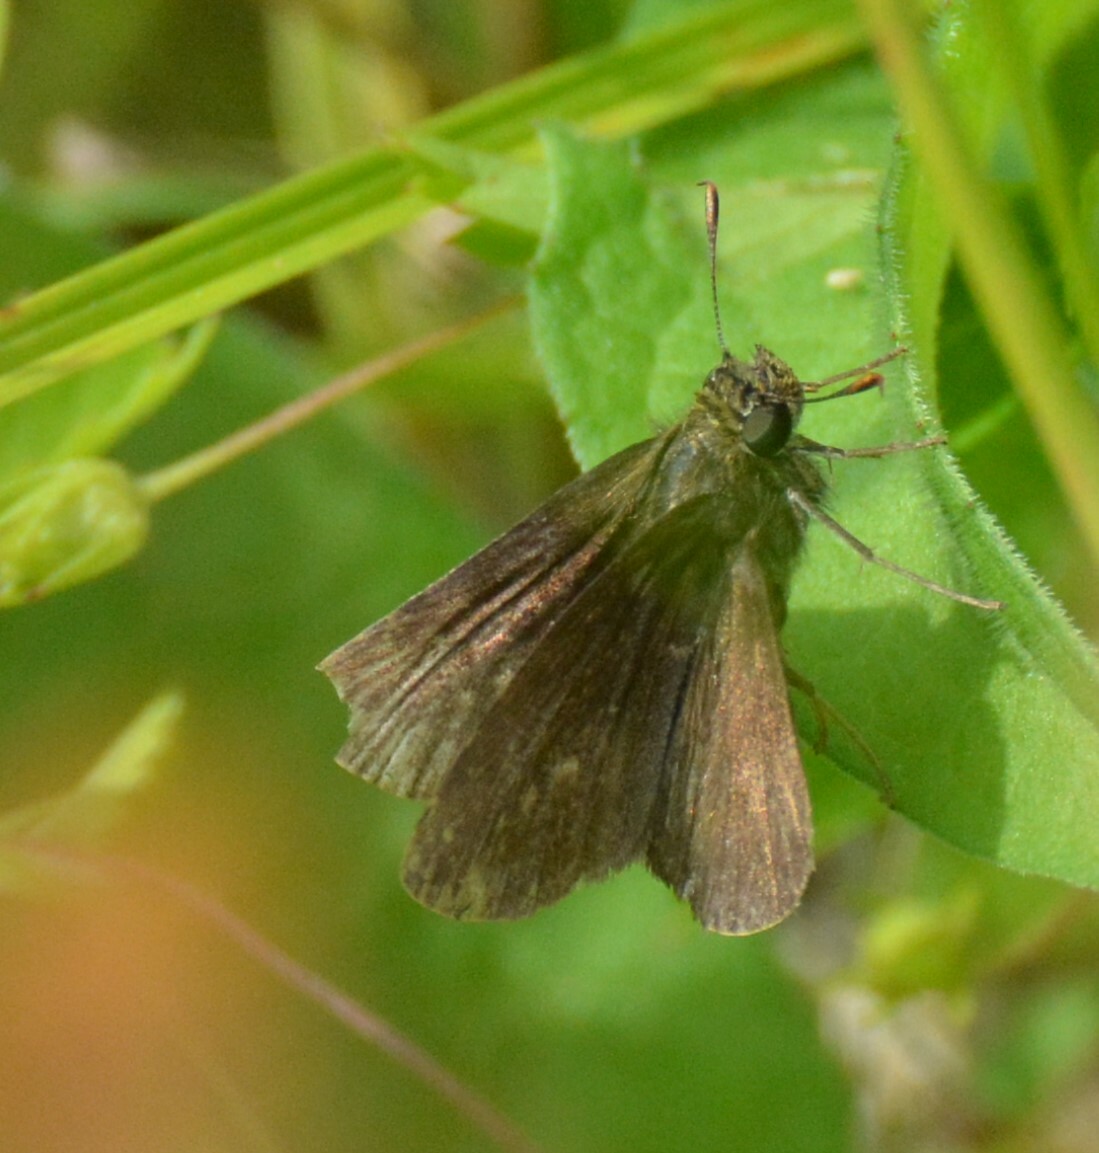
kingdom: Animalia
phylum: Arthropoda
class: Insecta
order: Lepidoptera
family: Hesperiidae
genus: Euphyes
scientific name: Euphyes vestris
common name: Dun skipper
